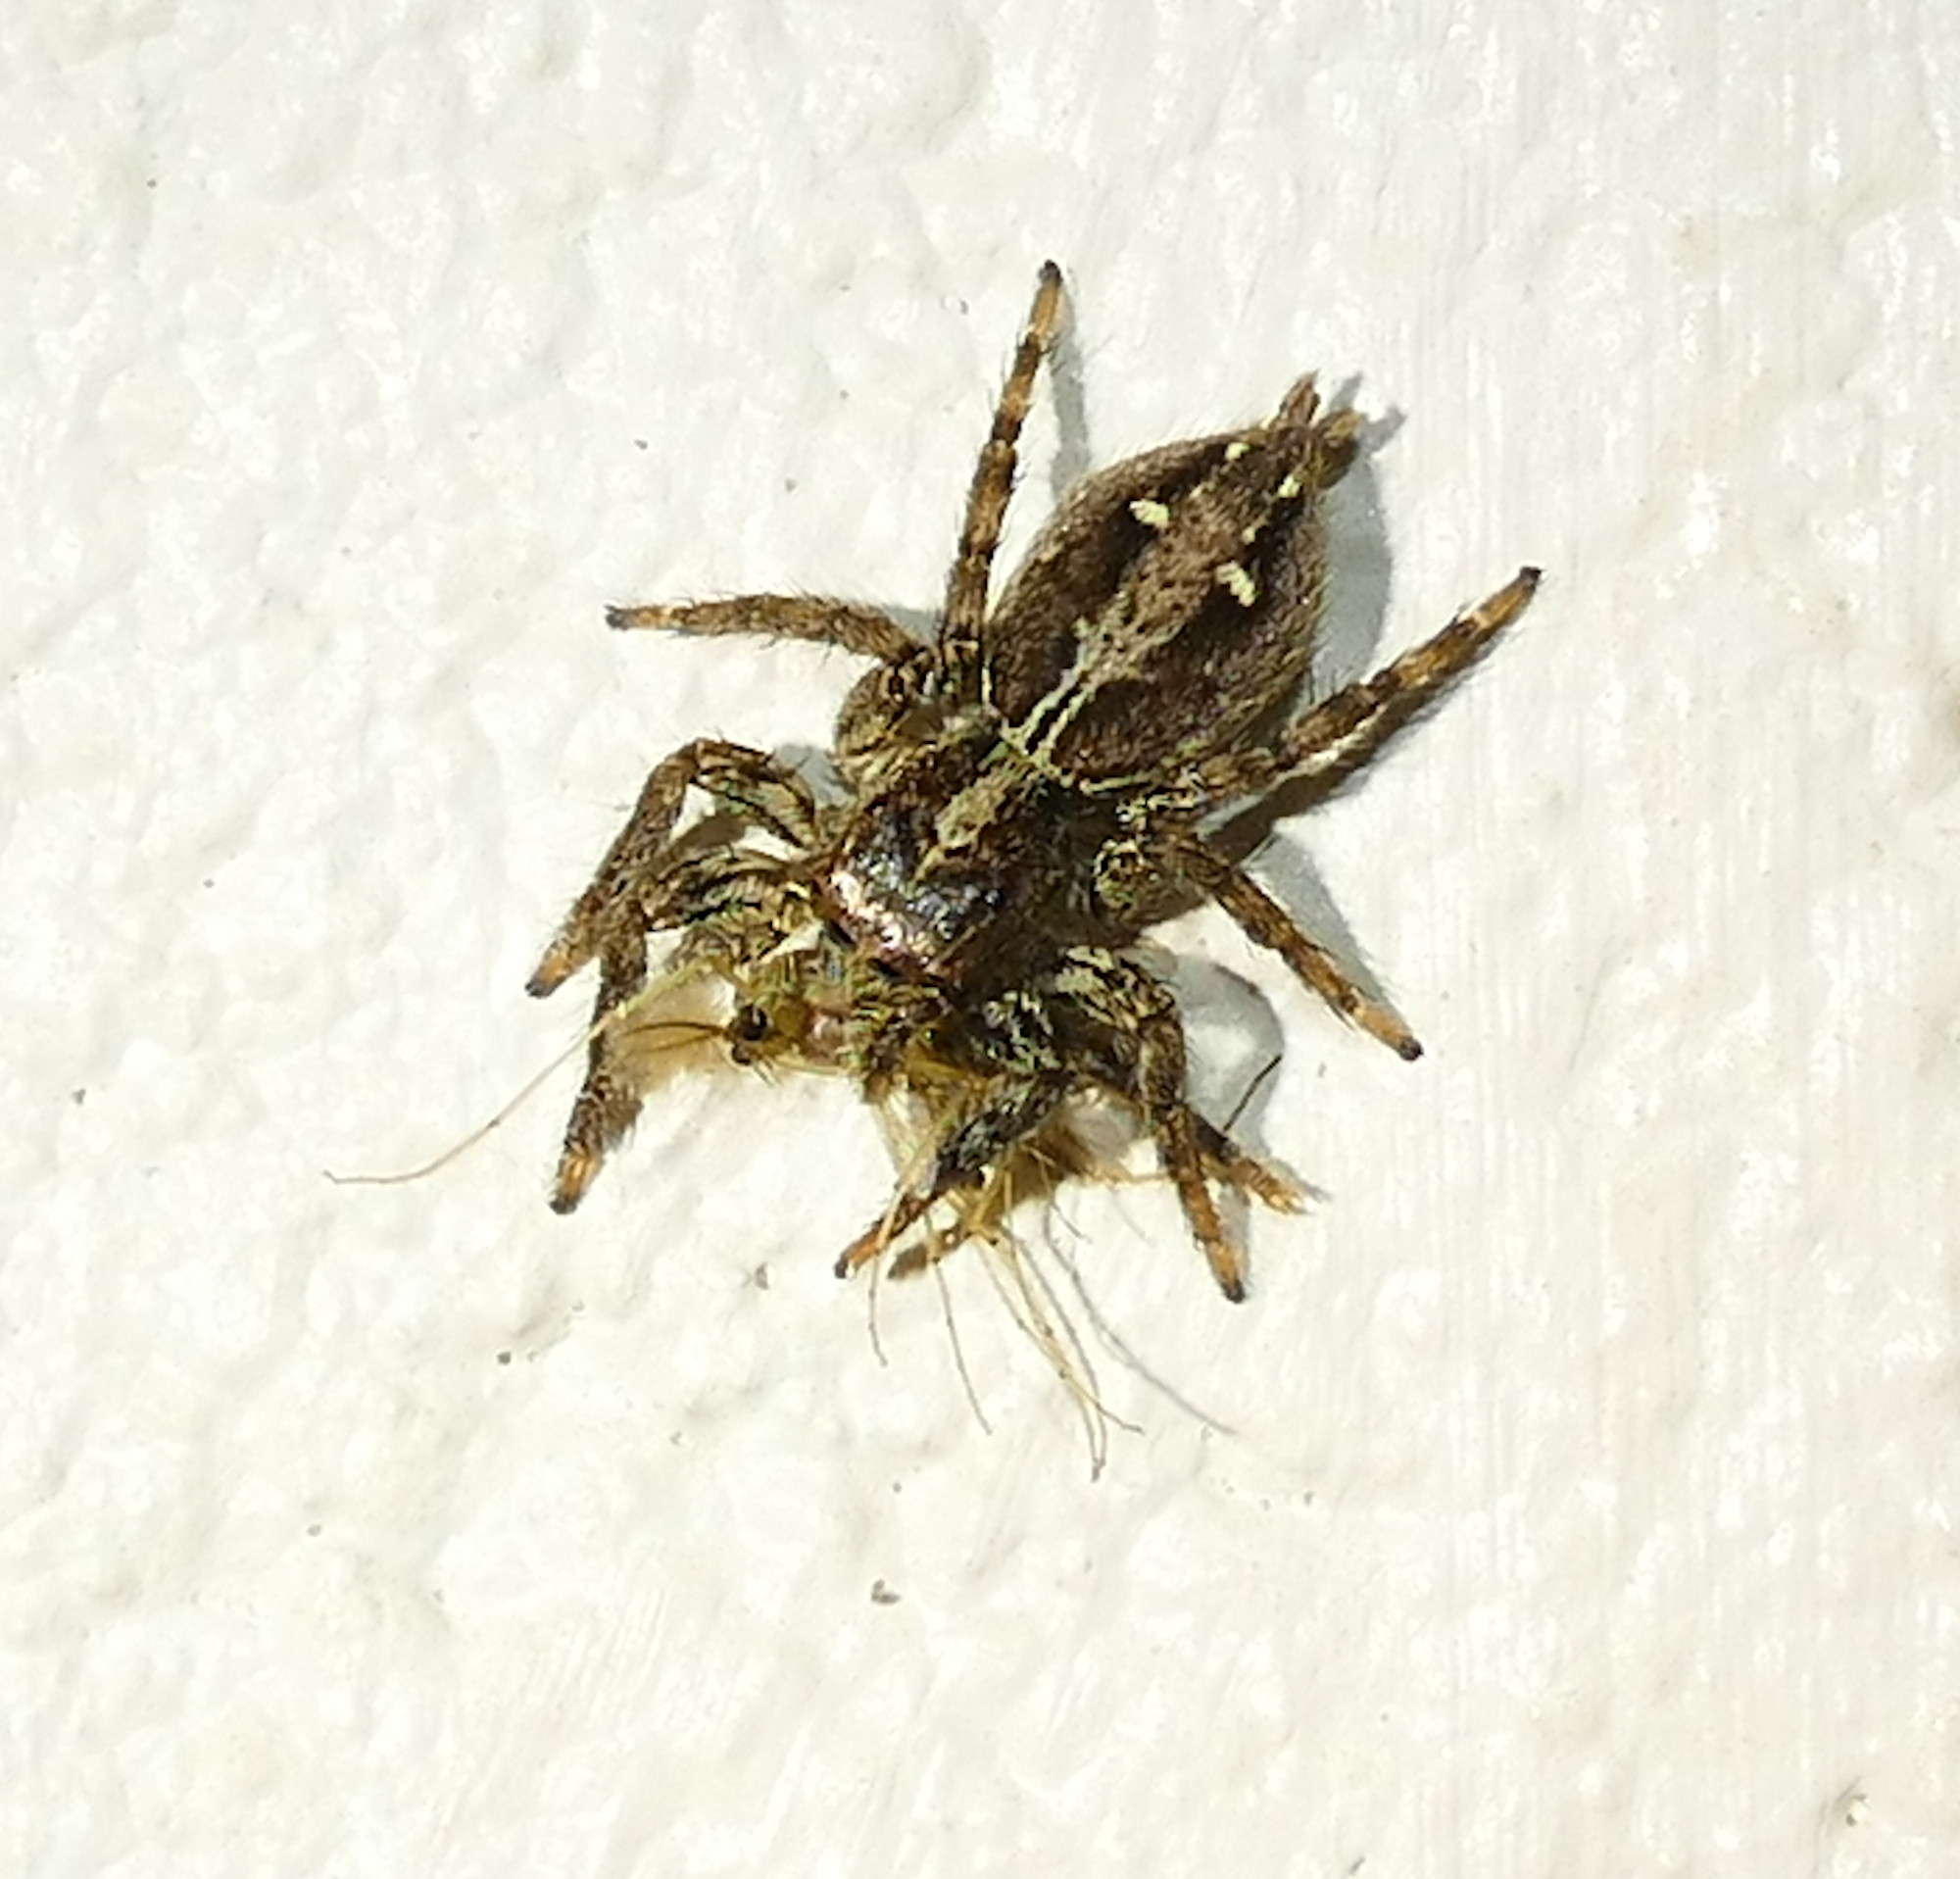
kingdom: Animalia
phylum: Arthropoda
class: Arachnida
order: Araneae
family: Salticidae
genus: Plexippus
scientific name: Plexippus paykulli
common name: Pantropical jumper
